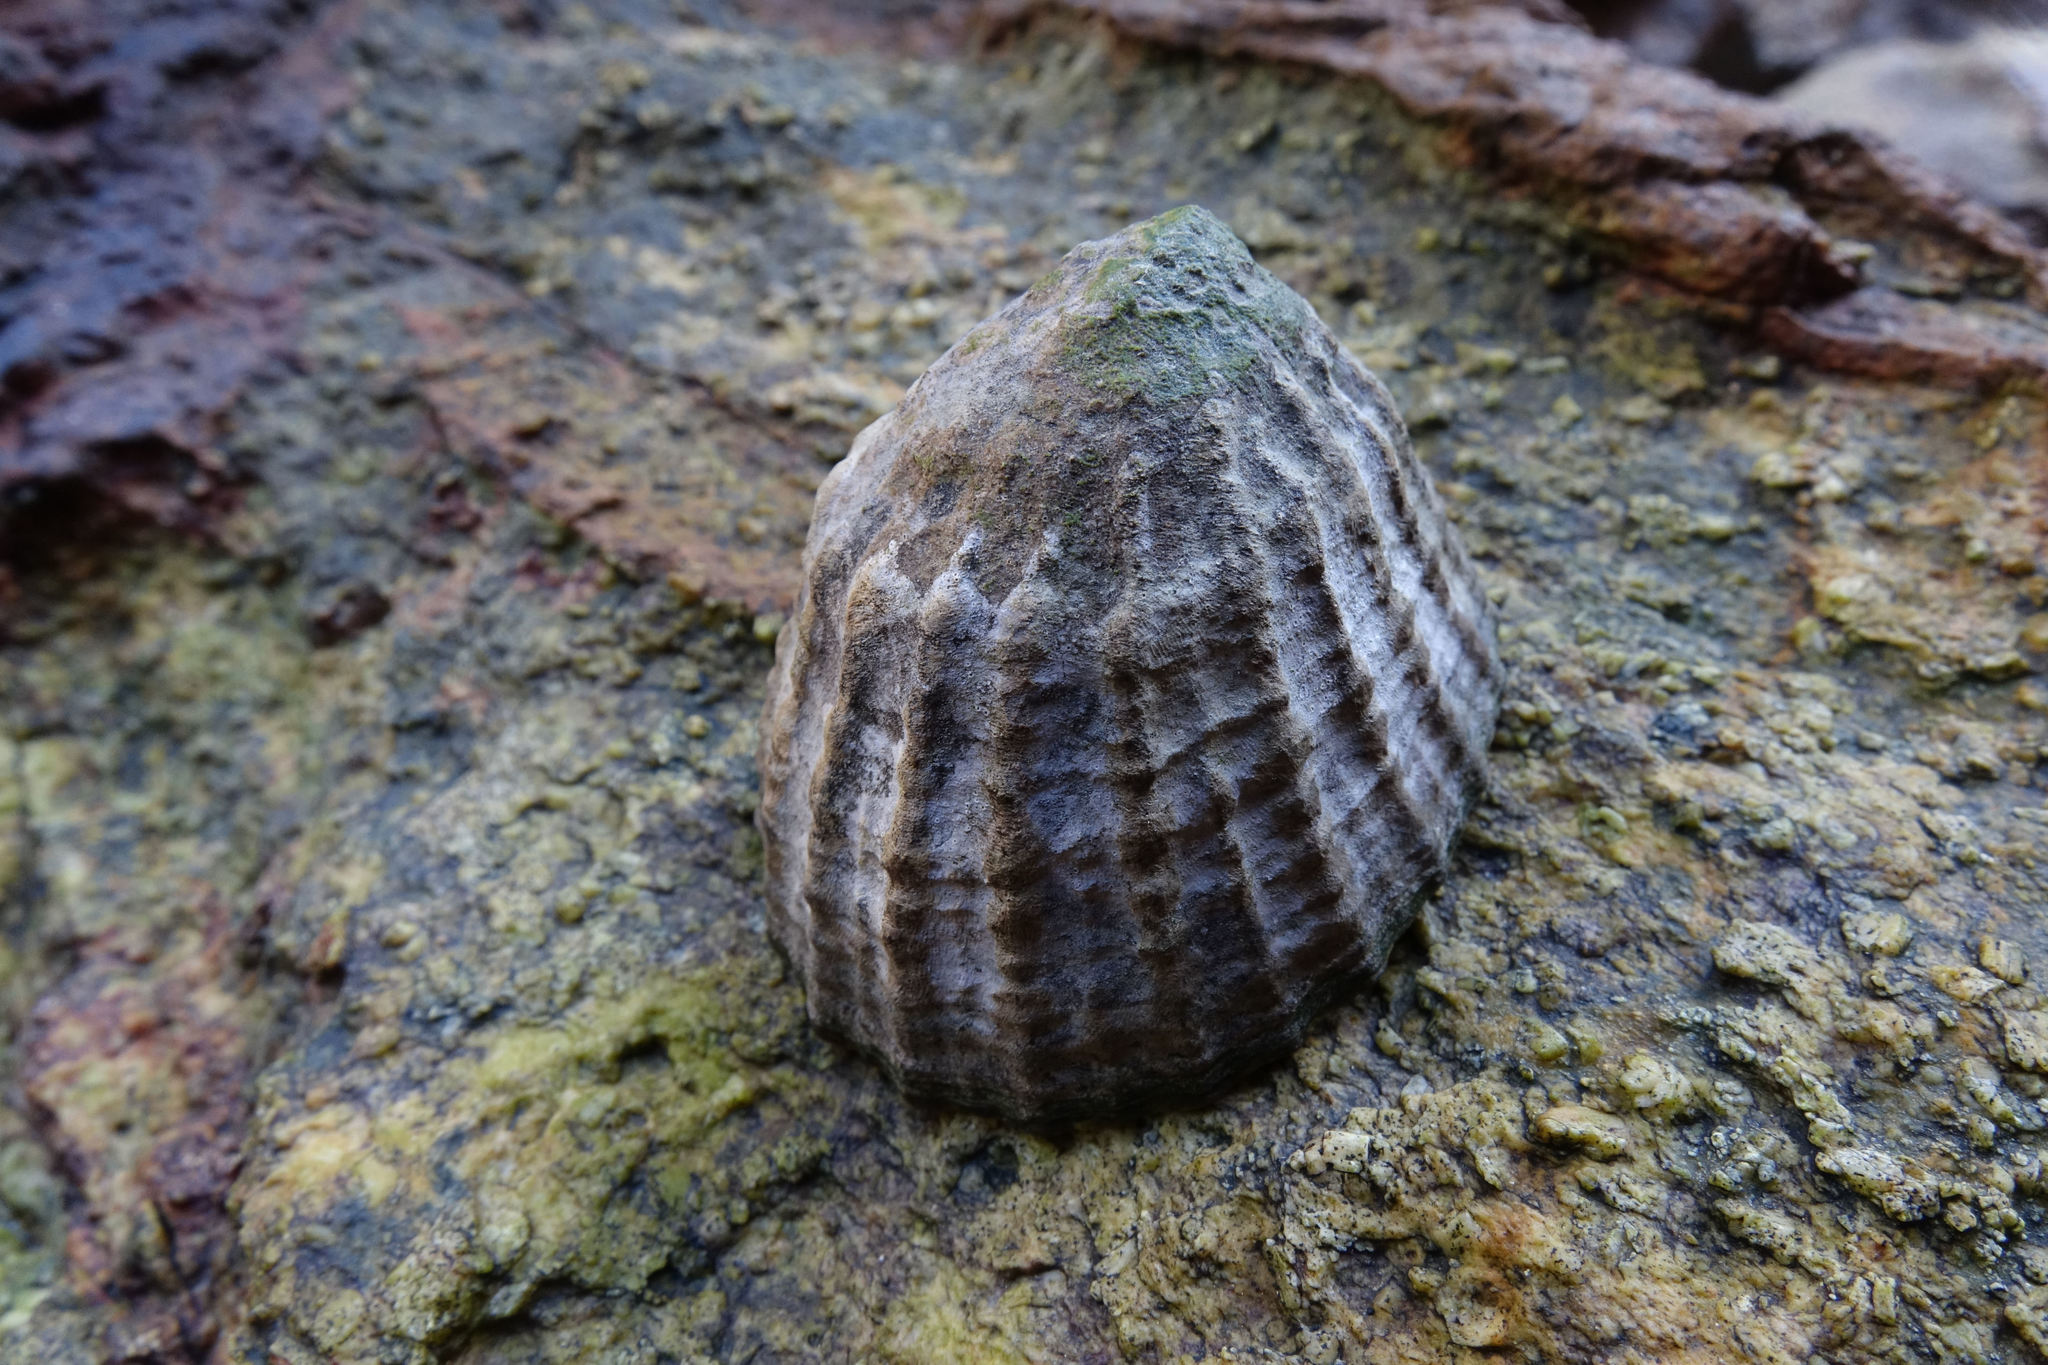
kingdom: Animalia
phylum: Mollusca
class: Gastropoda
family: Nacellidae
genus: Cellana
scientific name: Cellana strigilis
